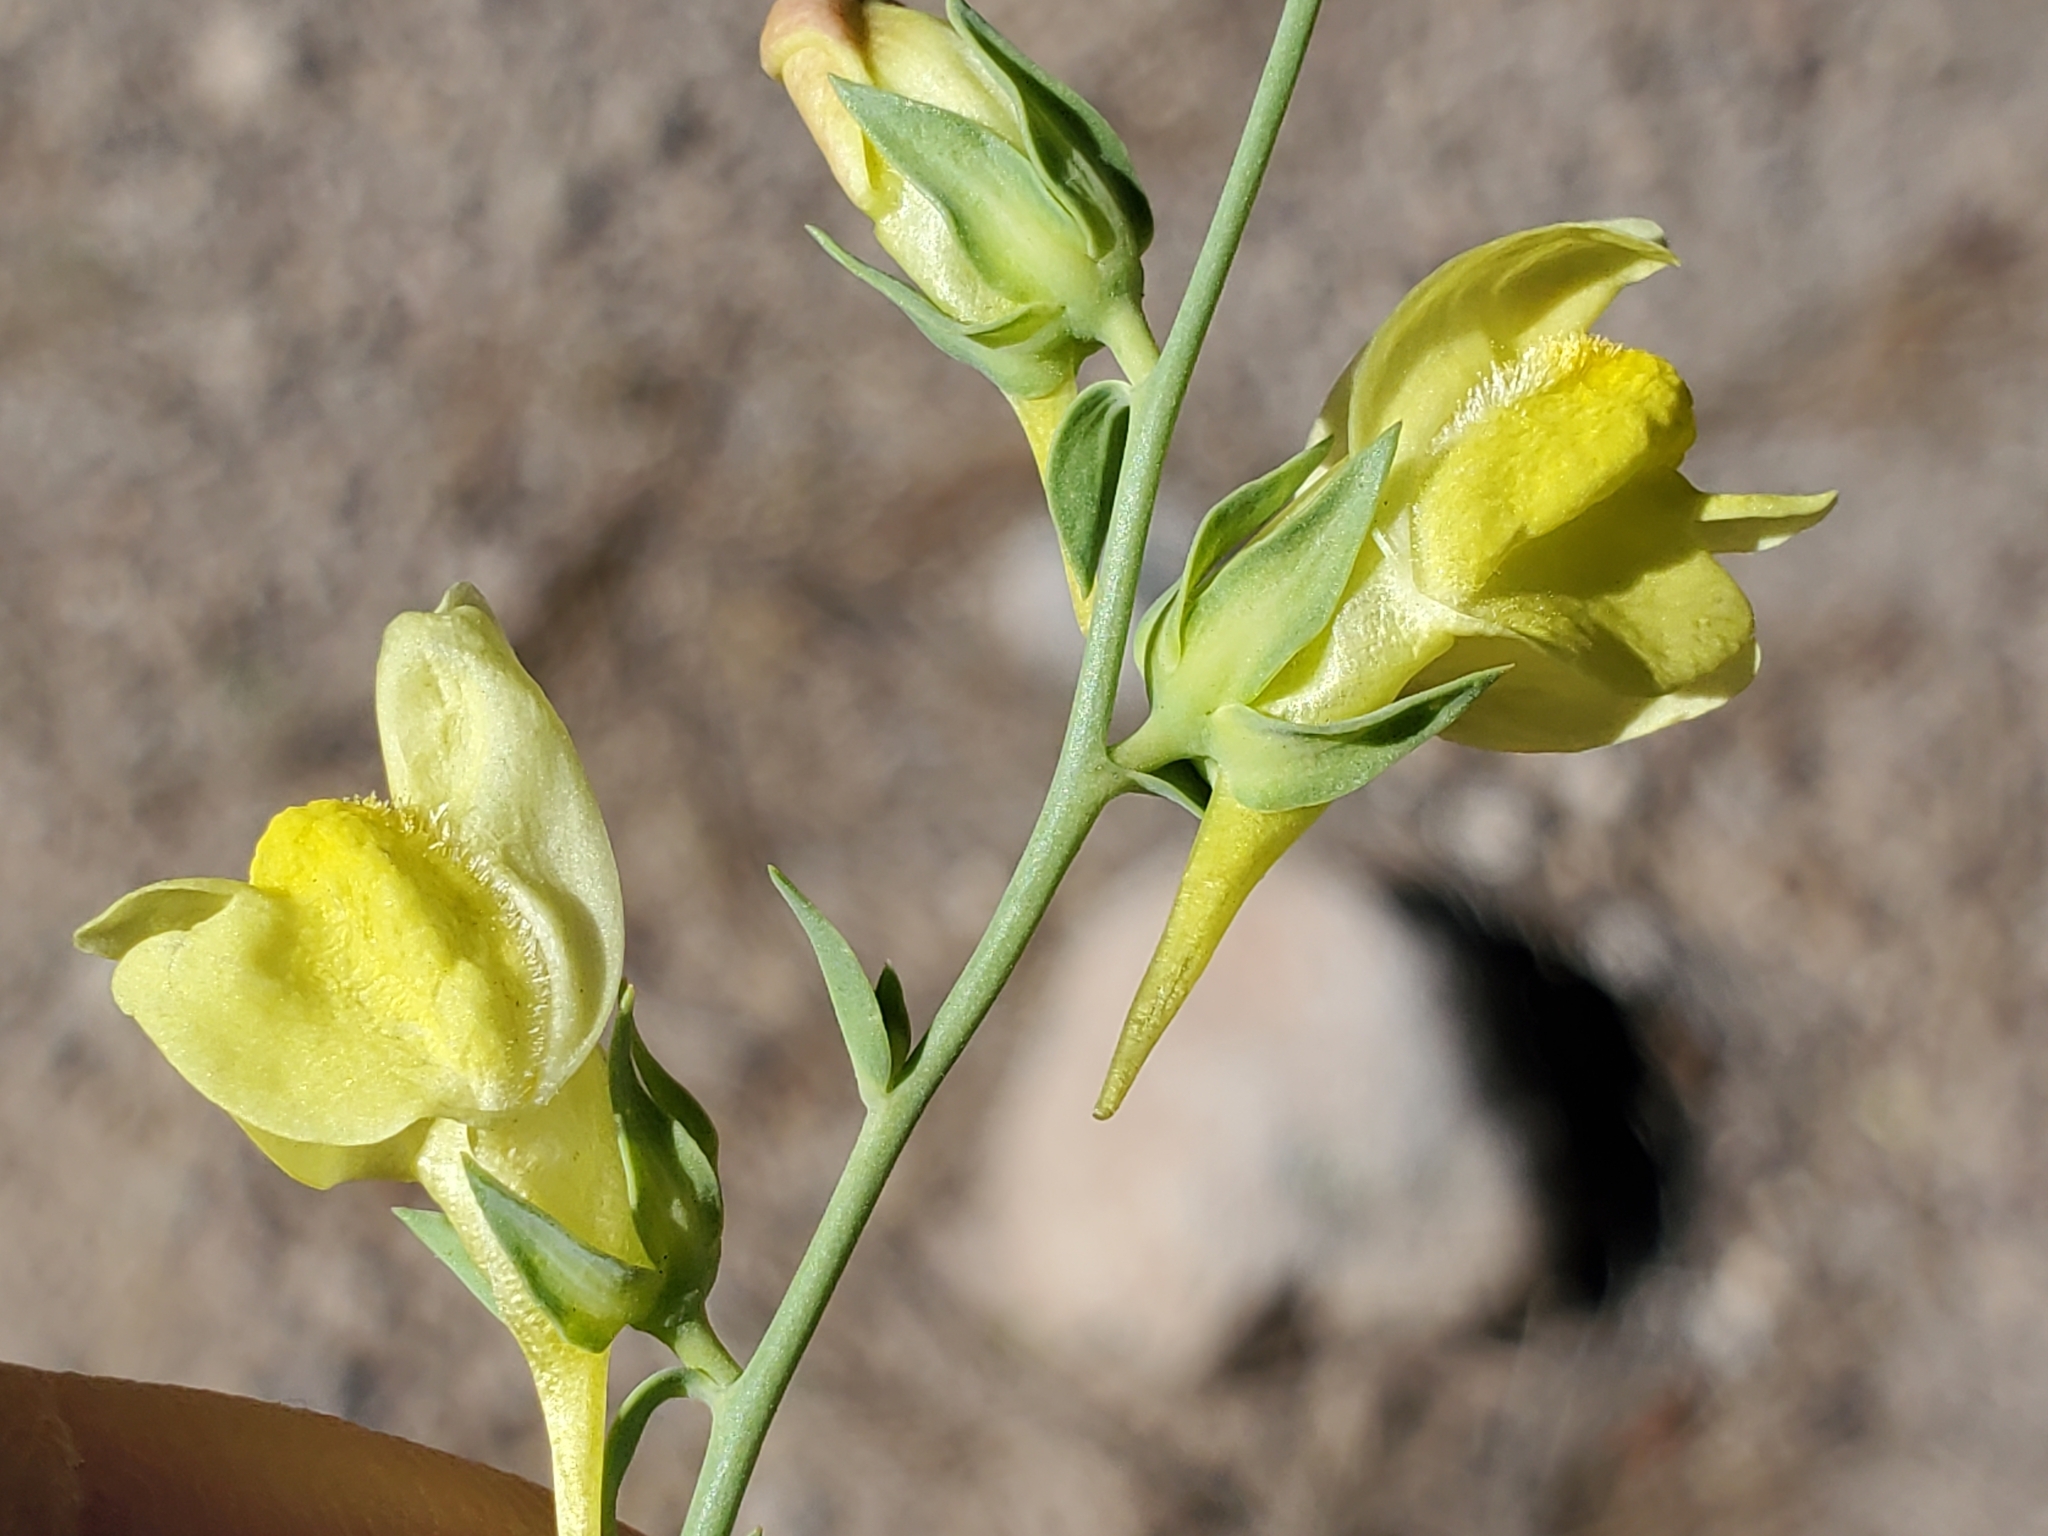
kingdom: Plantae
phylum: Tracheophyta
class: Magnoliopsida
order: Lamiales
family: Plantaginaceae
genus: Linaria
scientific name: Linaria dalmatica
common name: Dalmatian toadflax
